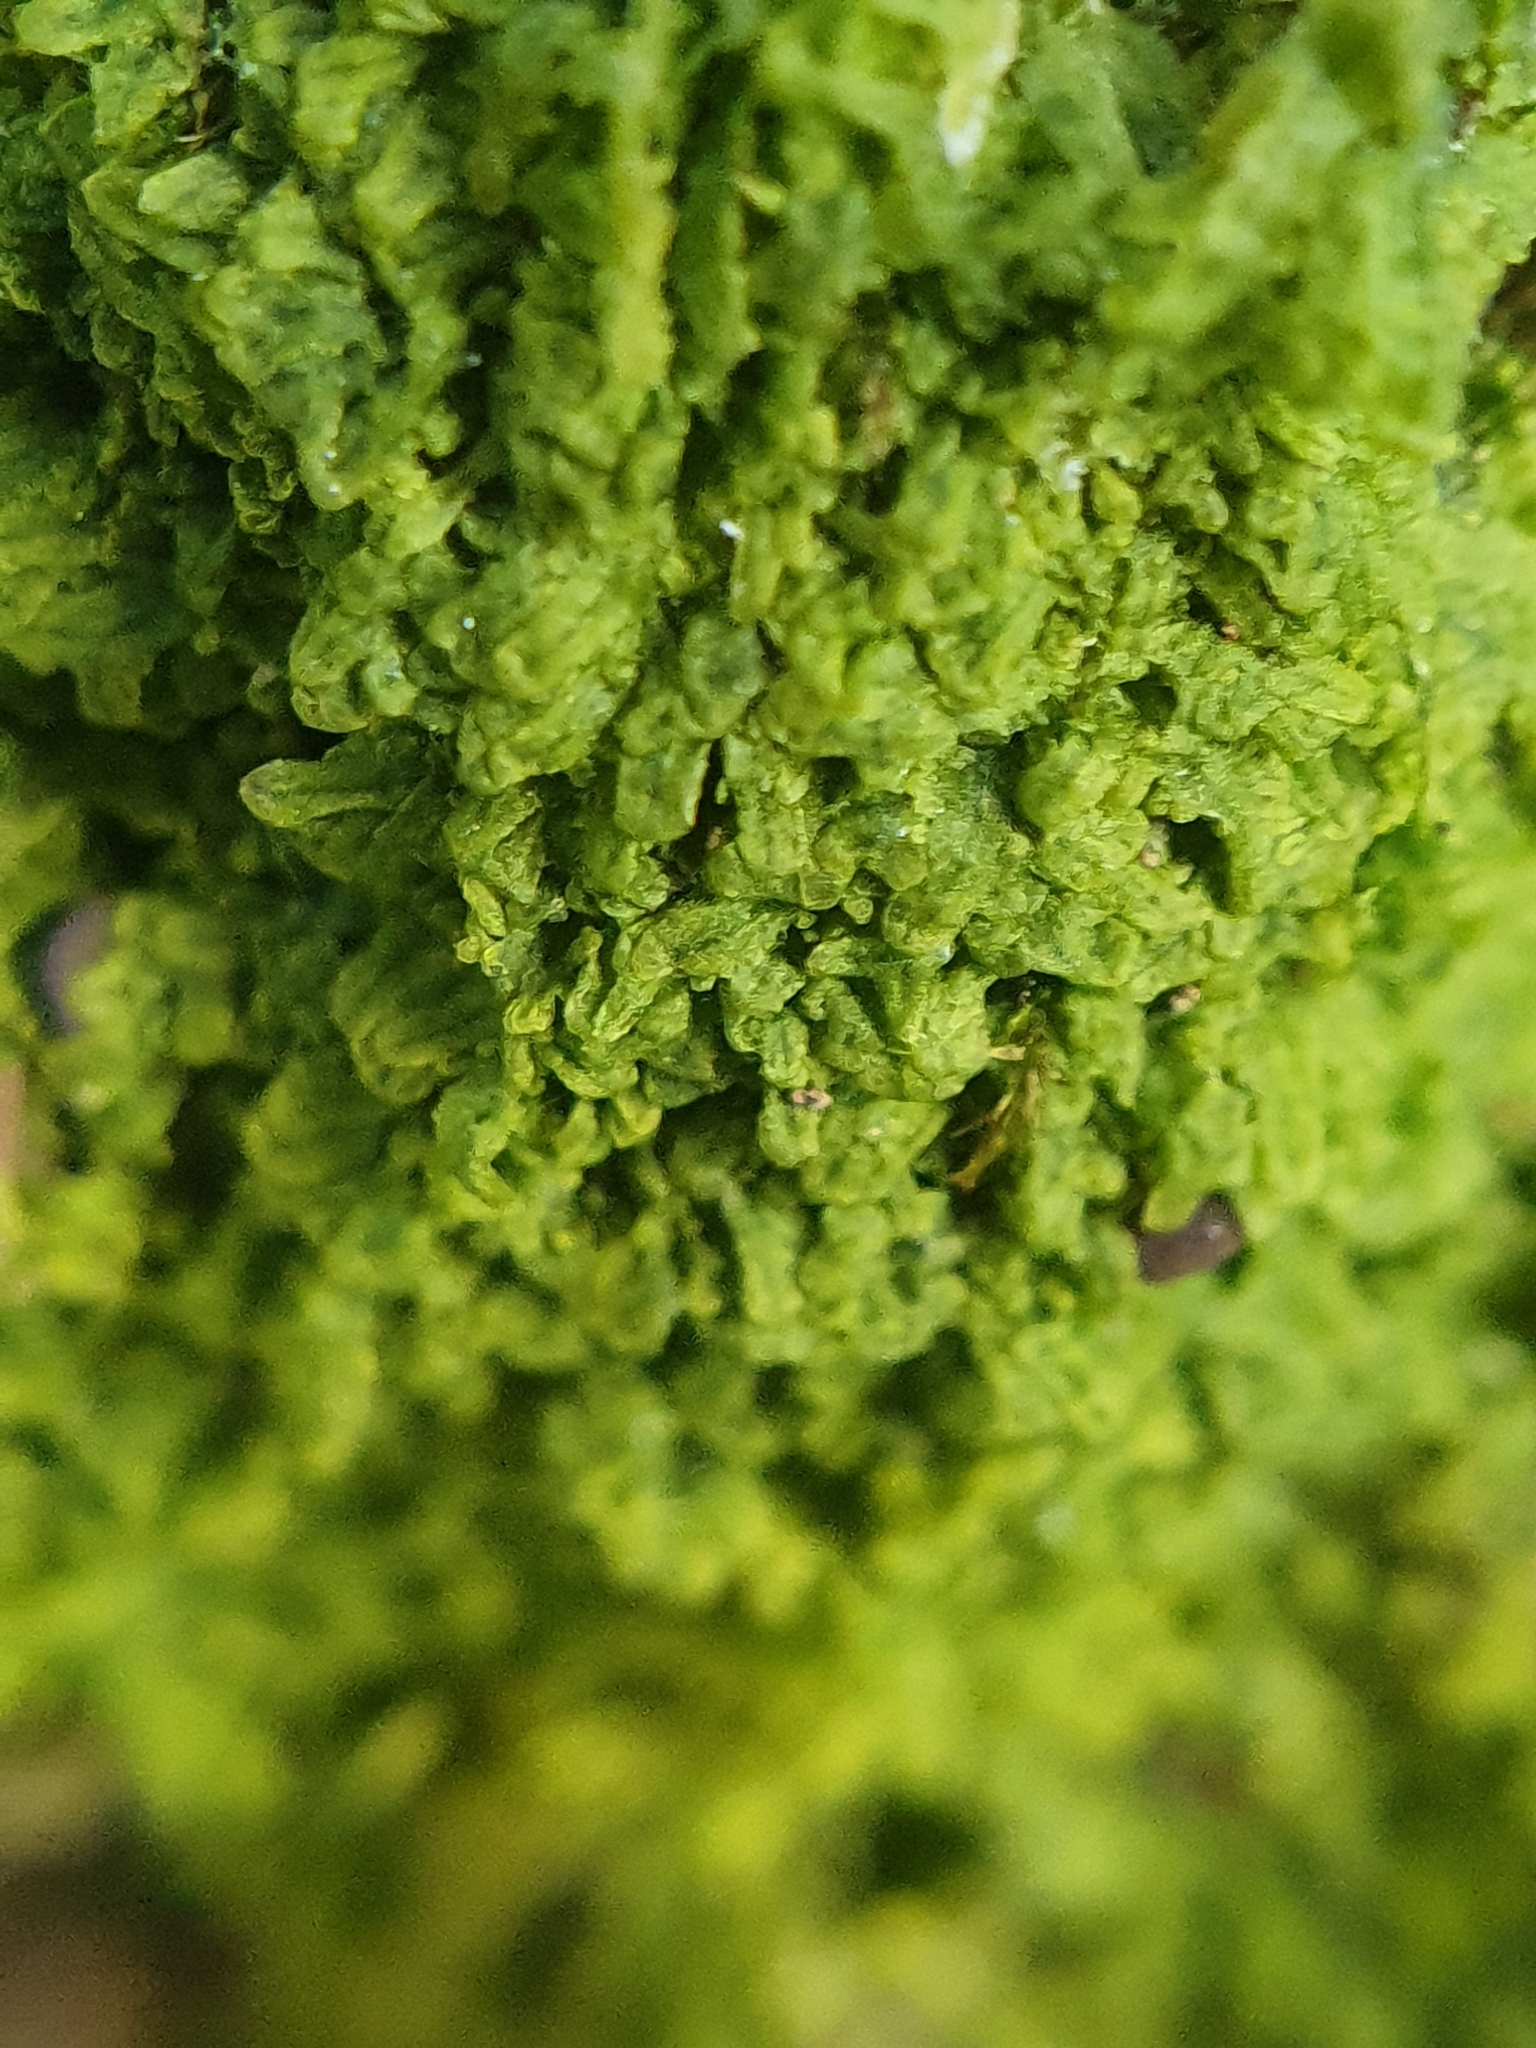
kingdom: Plantae
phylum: Marchantiophyta
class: Jungermanniopsida
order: Metzgeriales
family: Metzgeriaceae
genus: Metzgeria
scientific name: Metzgeria furcata
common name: Forked veilwort
